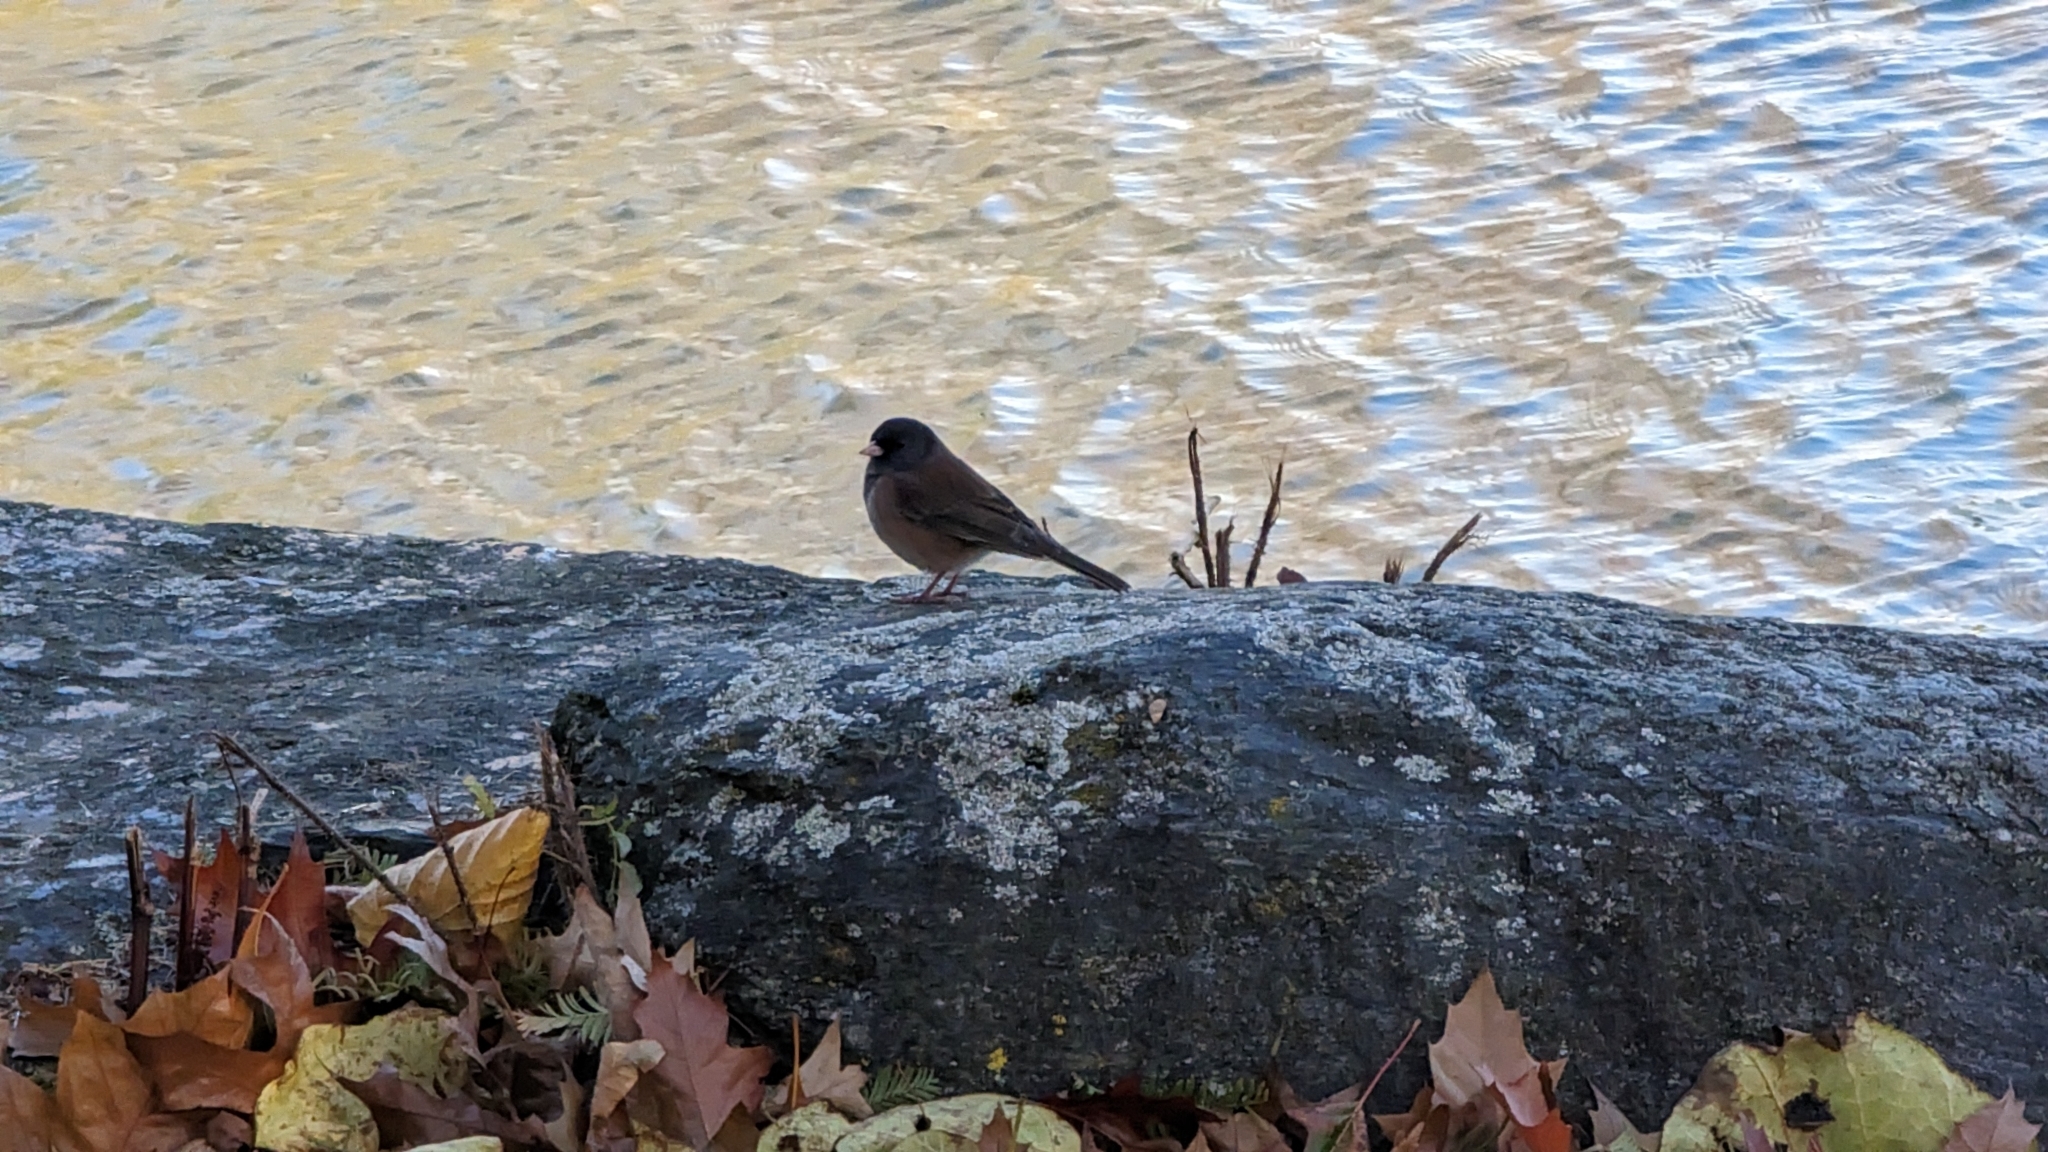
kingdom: Animalia
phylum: Chordata
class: Aves
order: Passeriformes
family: Passerellidae
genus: Junco
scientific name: Junco hyemalis
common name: Dark-eyed junco
